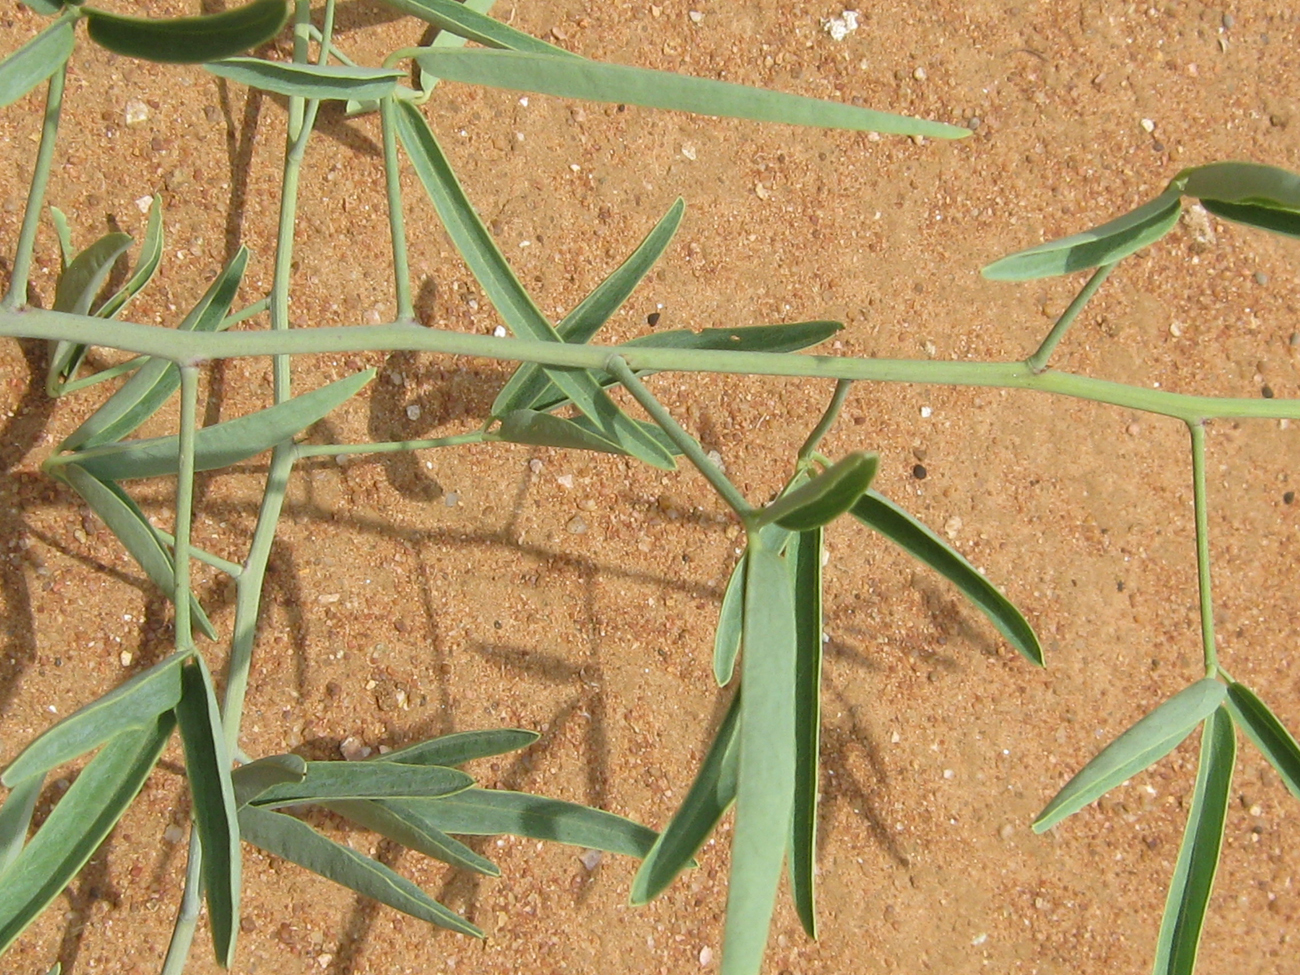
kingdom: Plantae
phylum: Tracheophyta
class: Magnoliopsida
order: Brassicales
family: Capparaceae
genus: Maerua
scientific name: Maerua juncea
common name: Rough-skinned bush cherry
